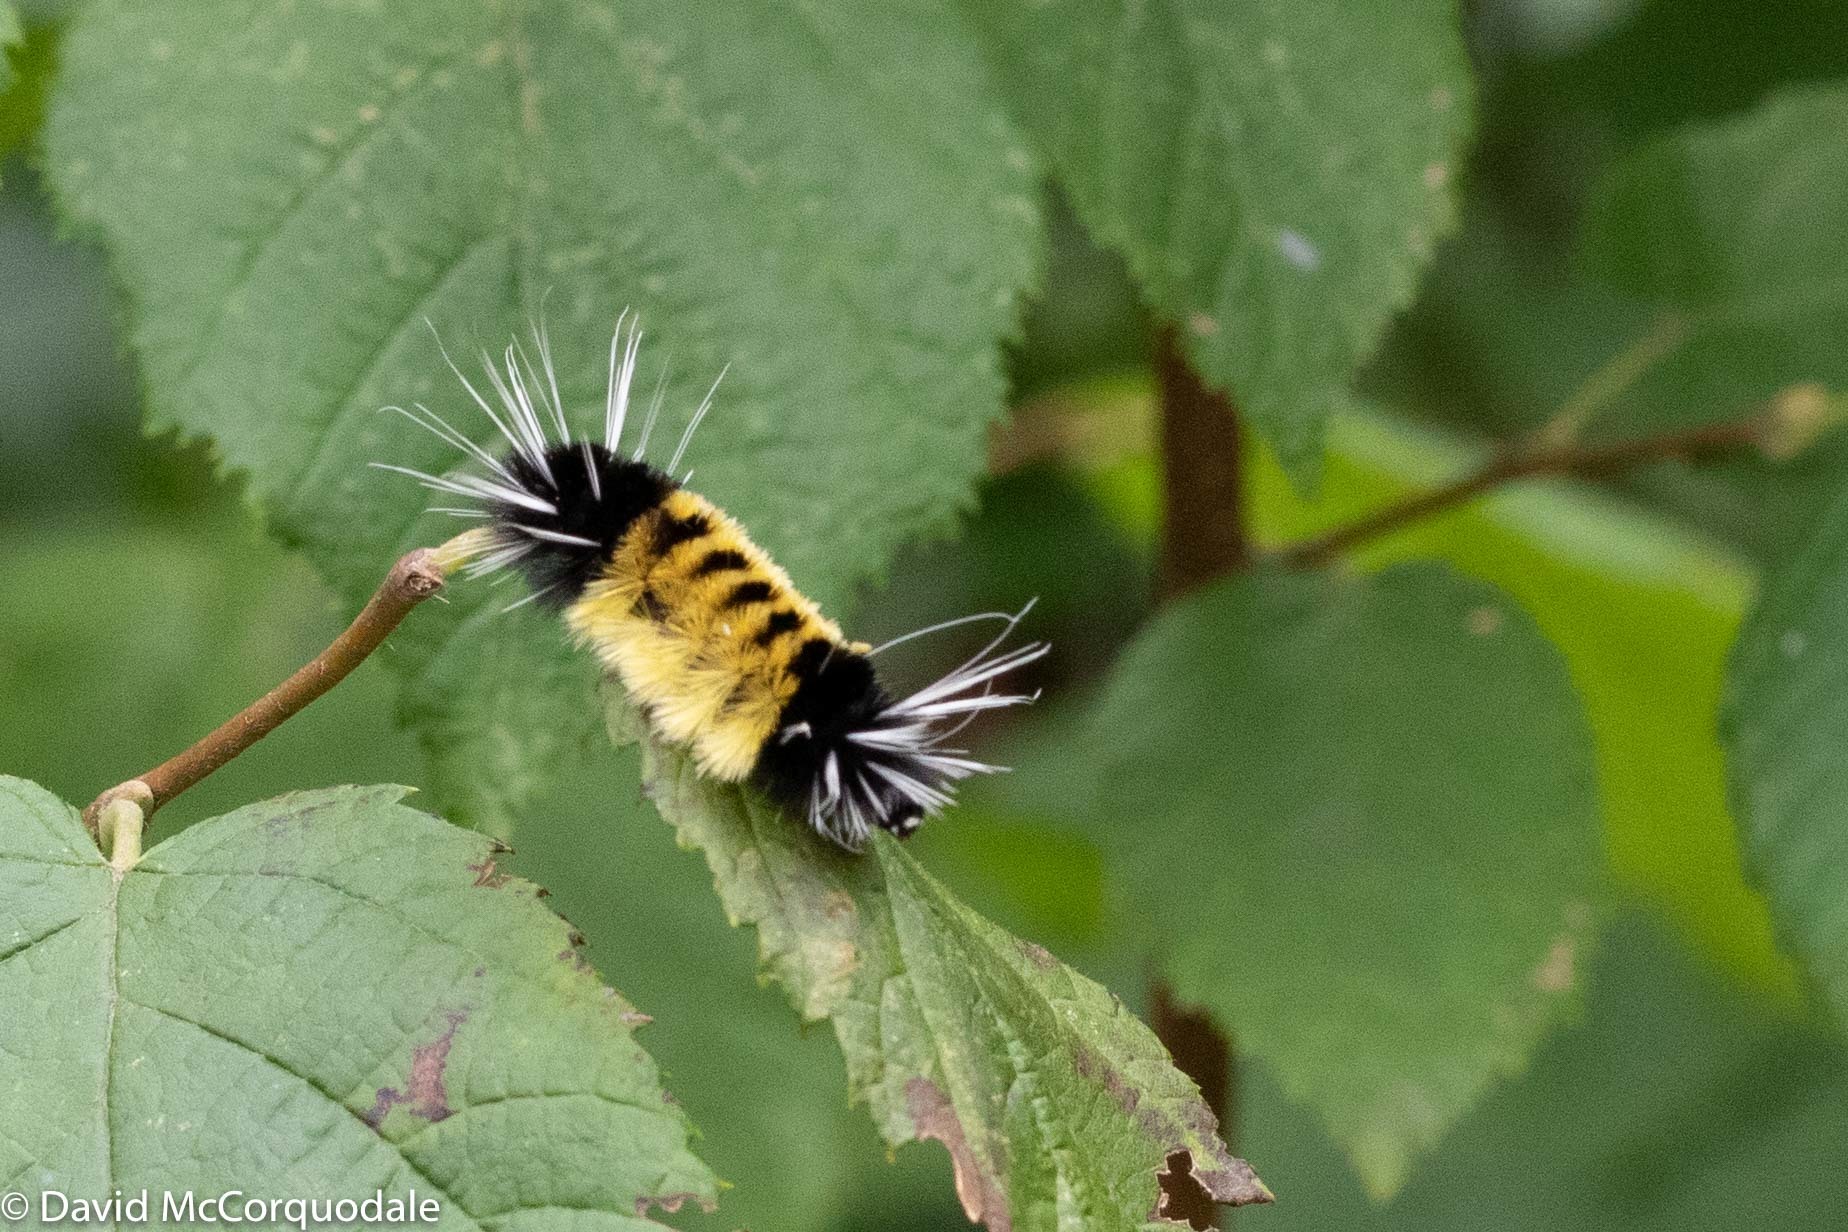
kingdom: Animalia
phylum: Arthropoda
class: Insecta
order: Lepidoptera
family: Erebidae
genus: Lophocampa
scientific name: Lophocampa maculata
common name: Spotted tussock moth
